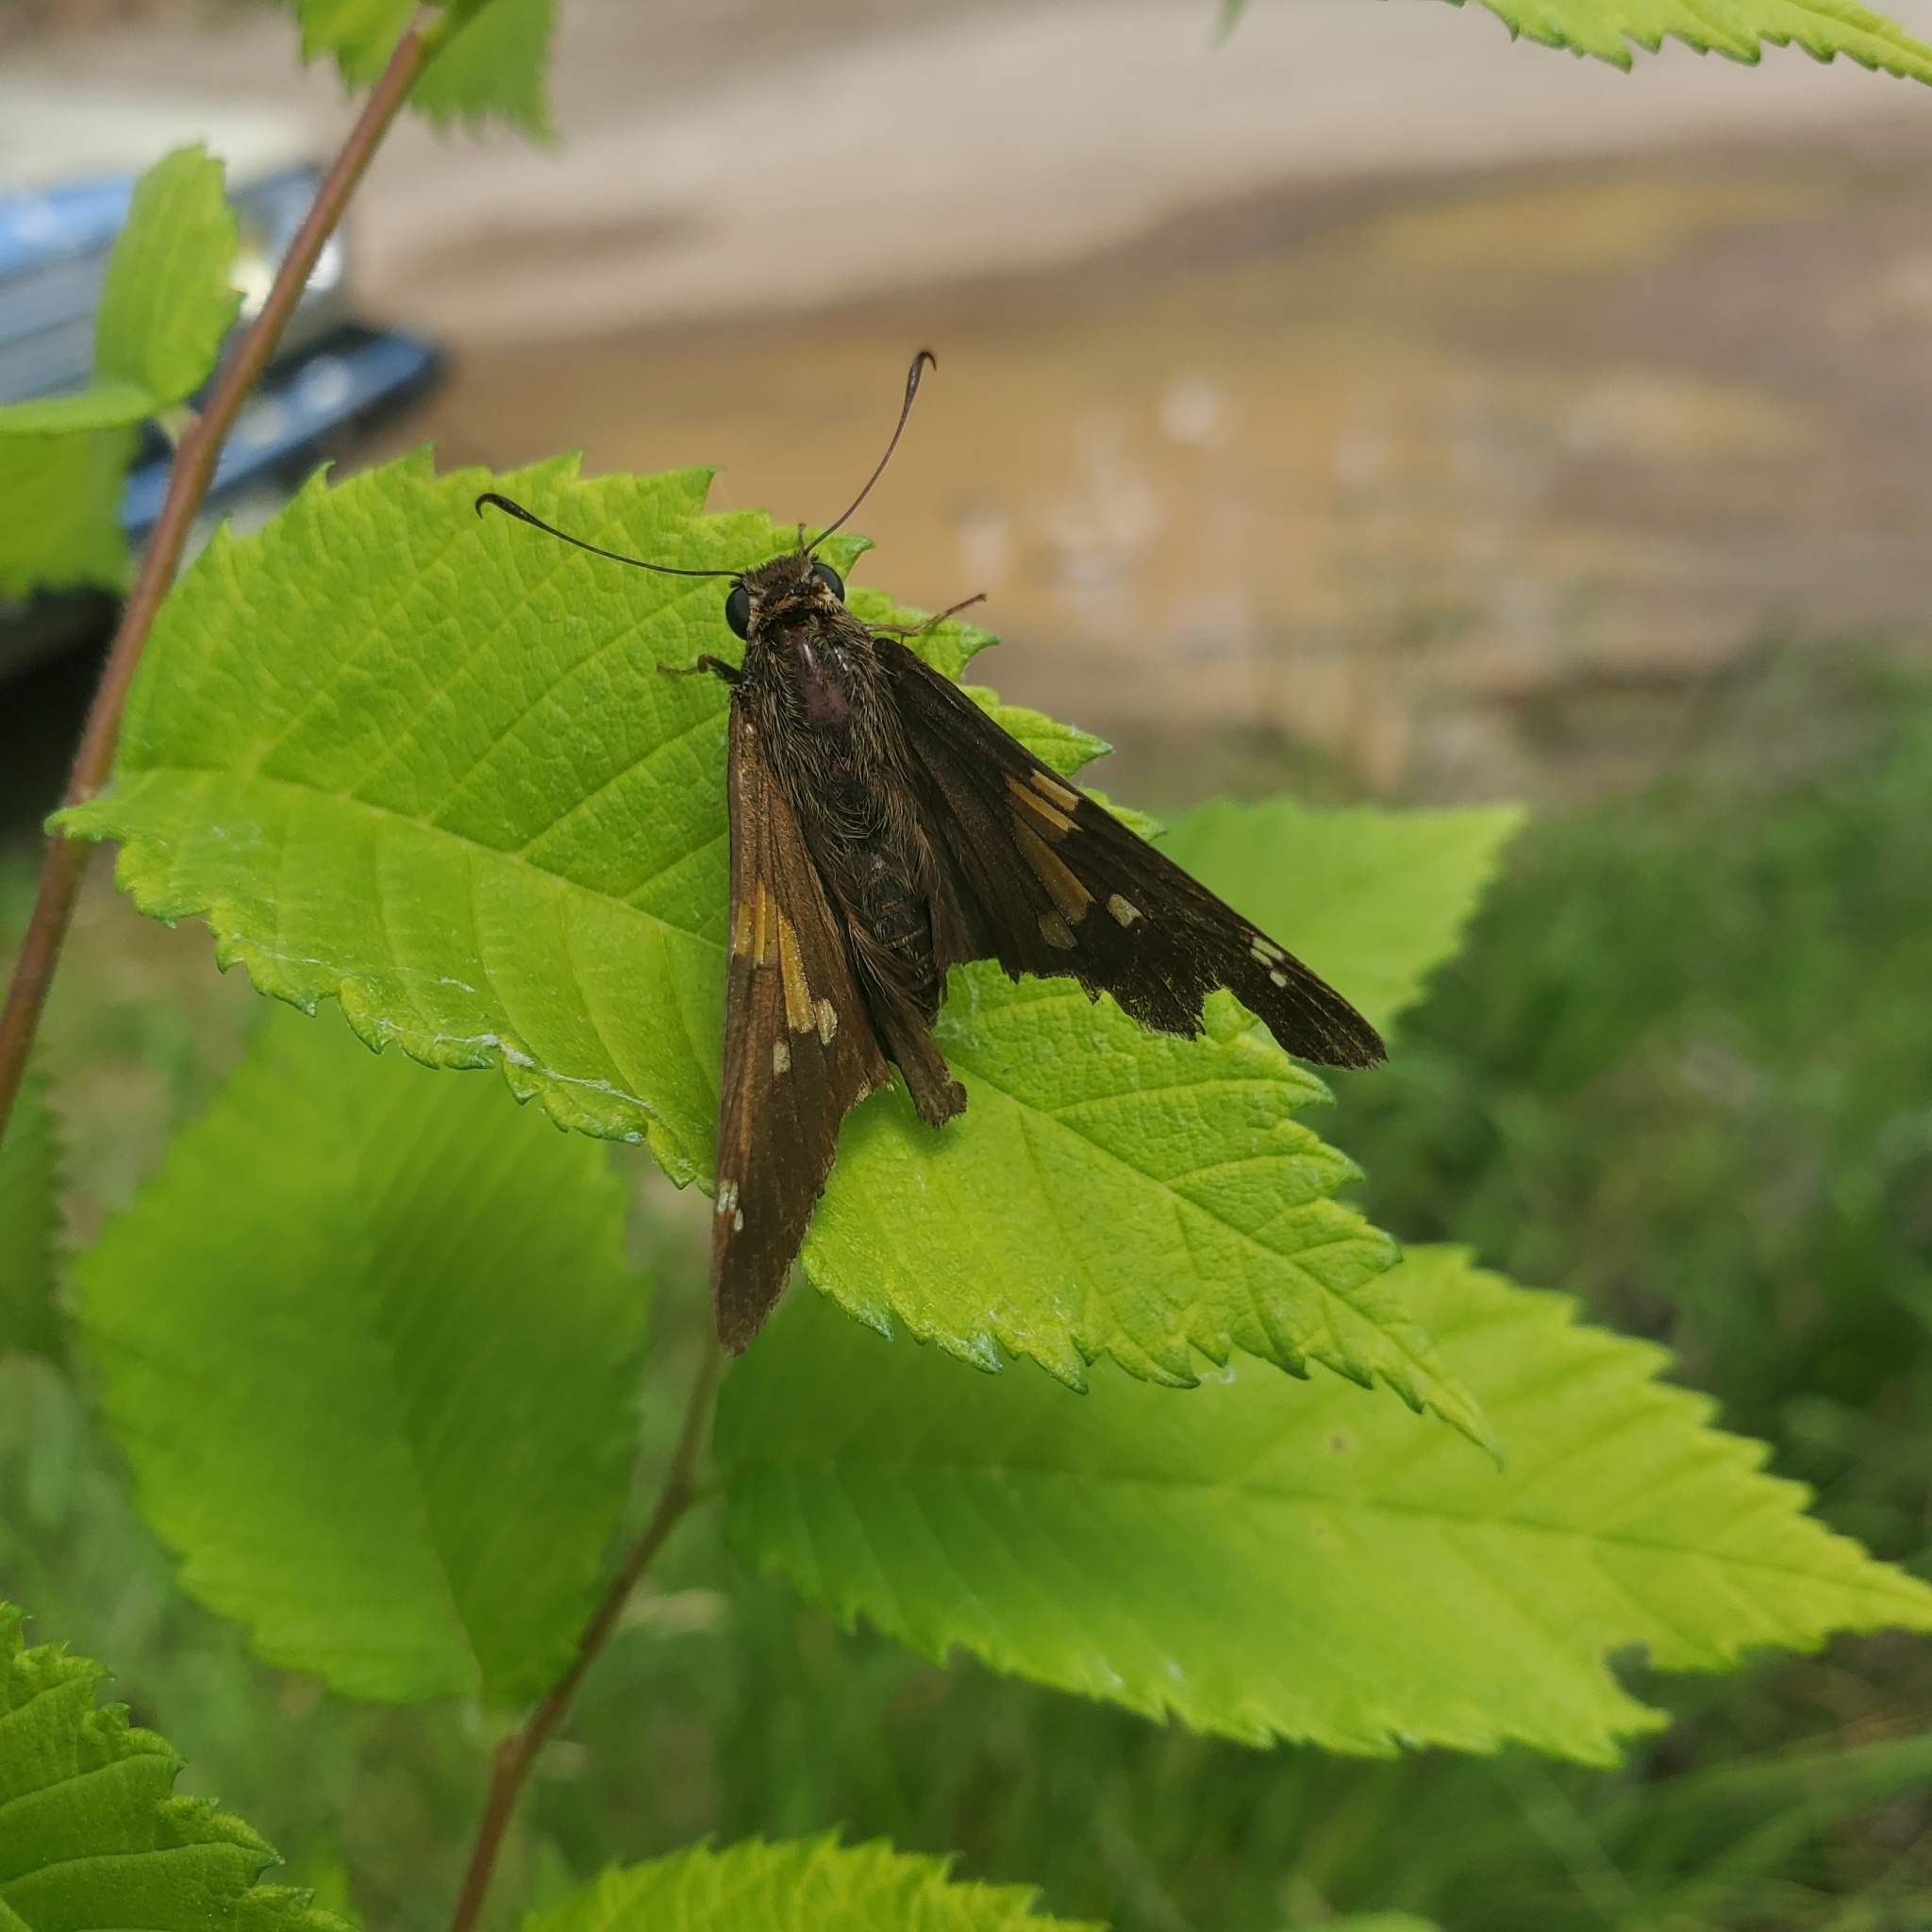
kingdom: Animalia
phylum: Arthropoda
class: Insecta
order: Lepidoptera
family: Hesperiidae
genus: Epargyreus
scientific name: Epargyreus clarus
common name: Silver-spotted skipper
